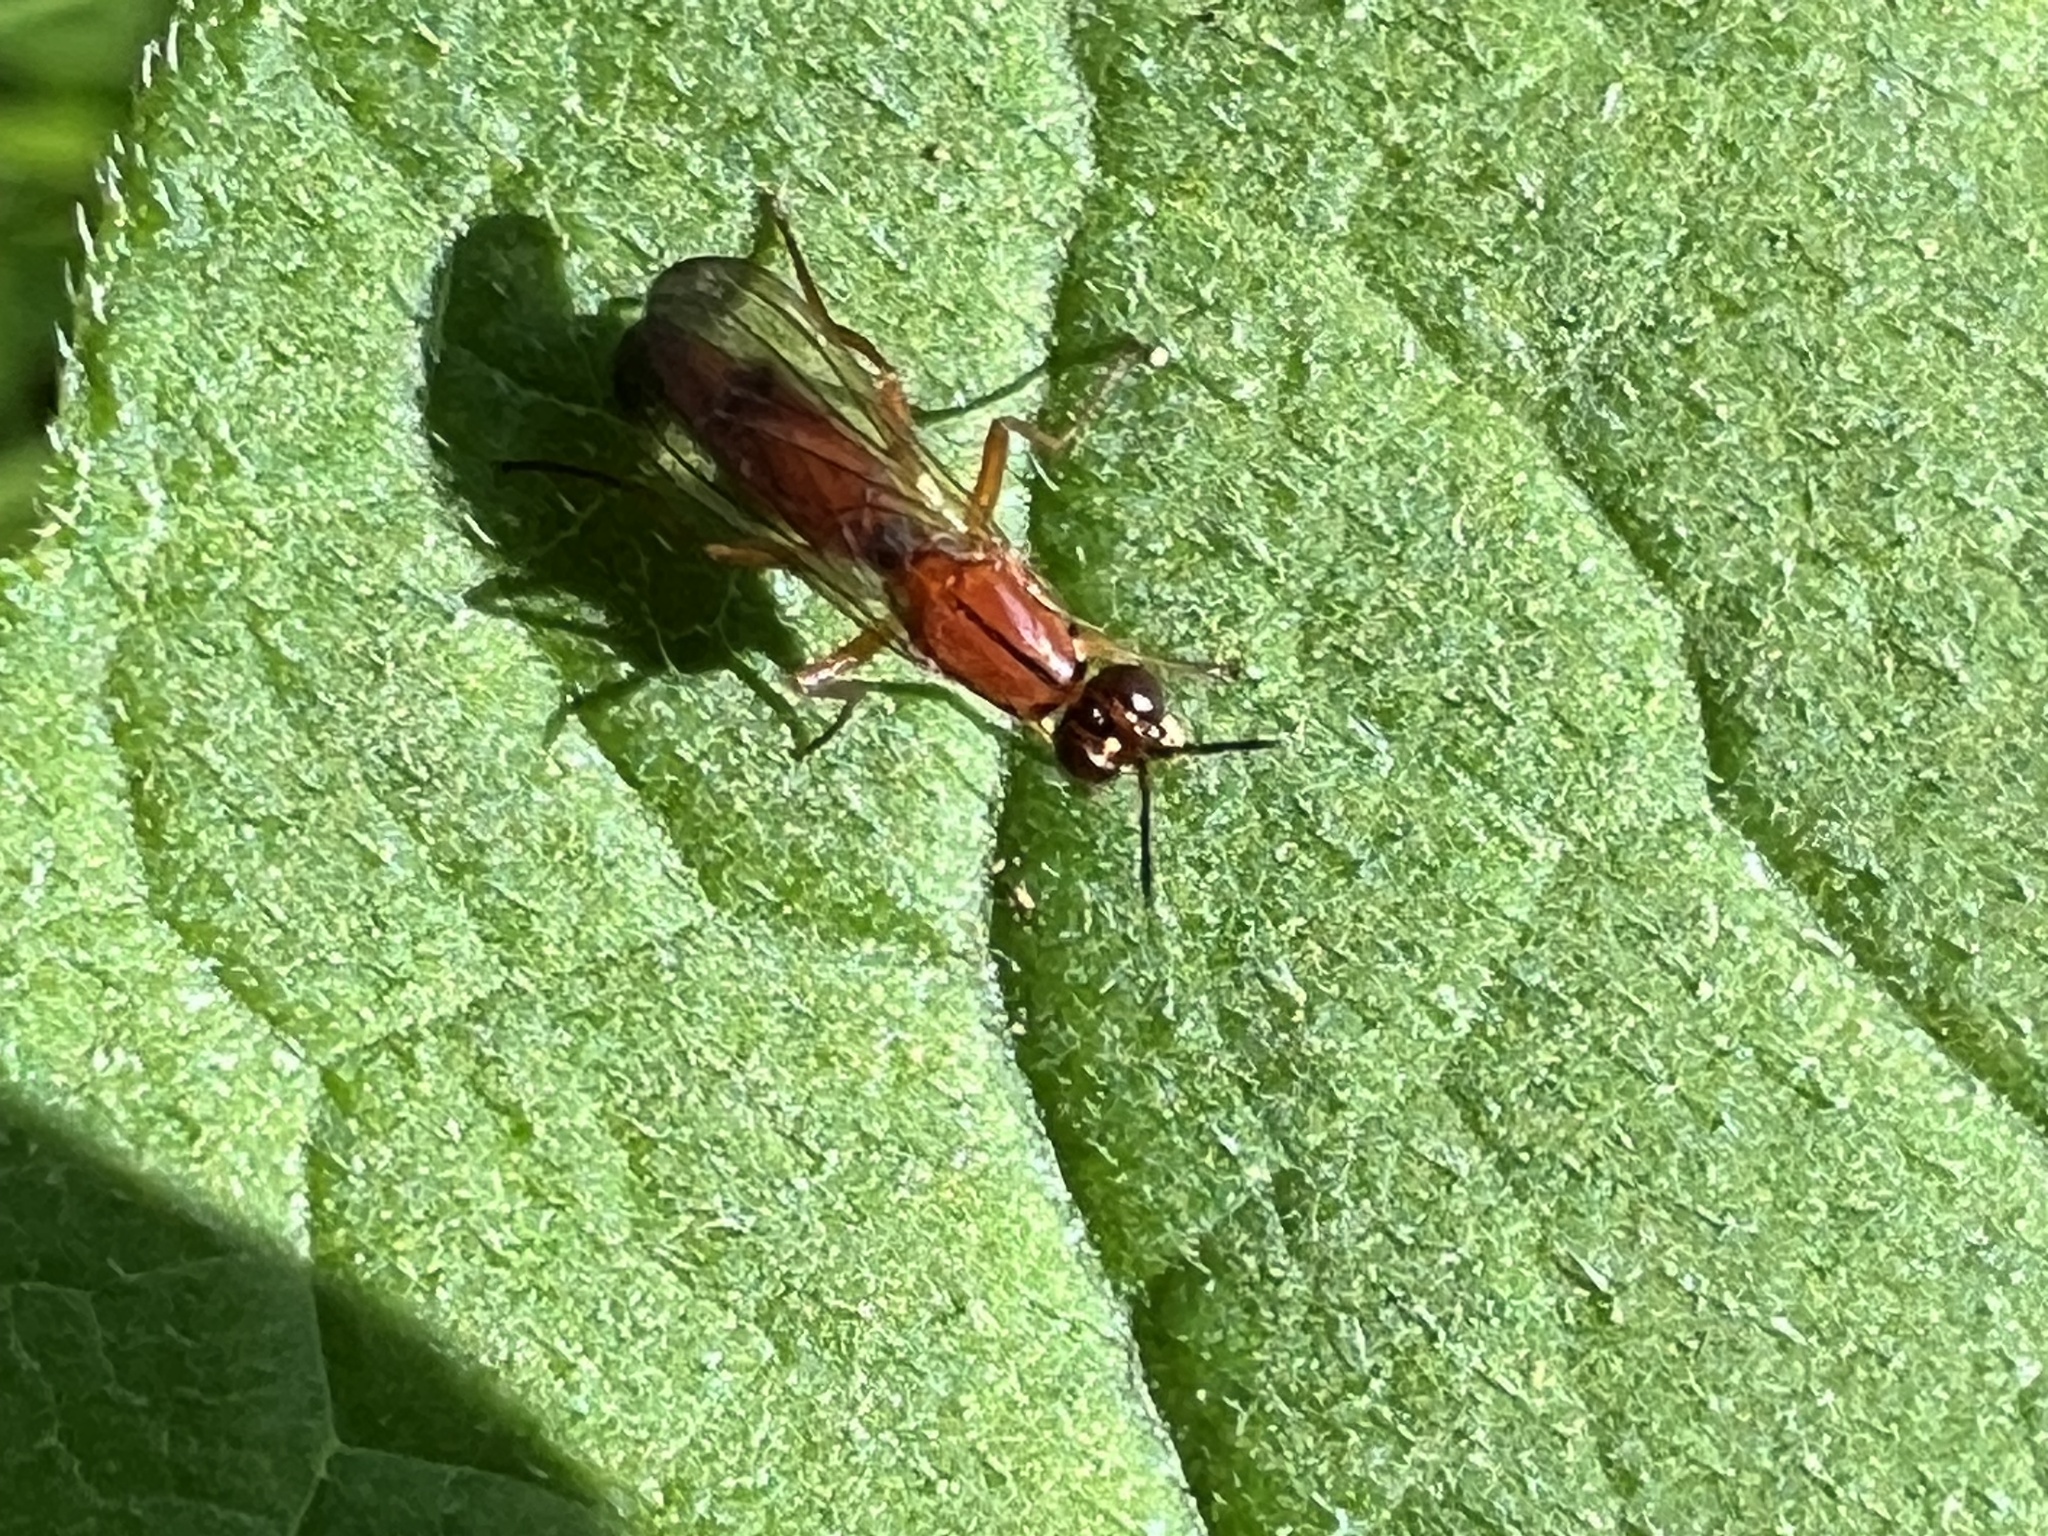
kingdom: Animalia
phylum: Arthropoda
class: Insecta
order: Diptera
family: Psilidae
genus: Loxocera
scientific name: Loxocera cylindrica
